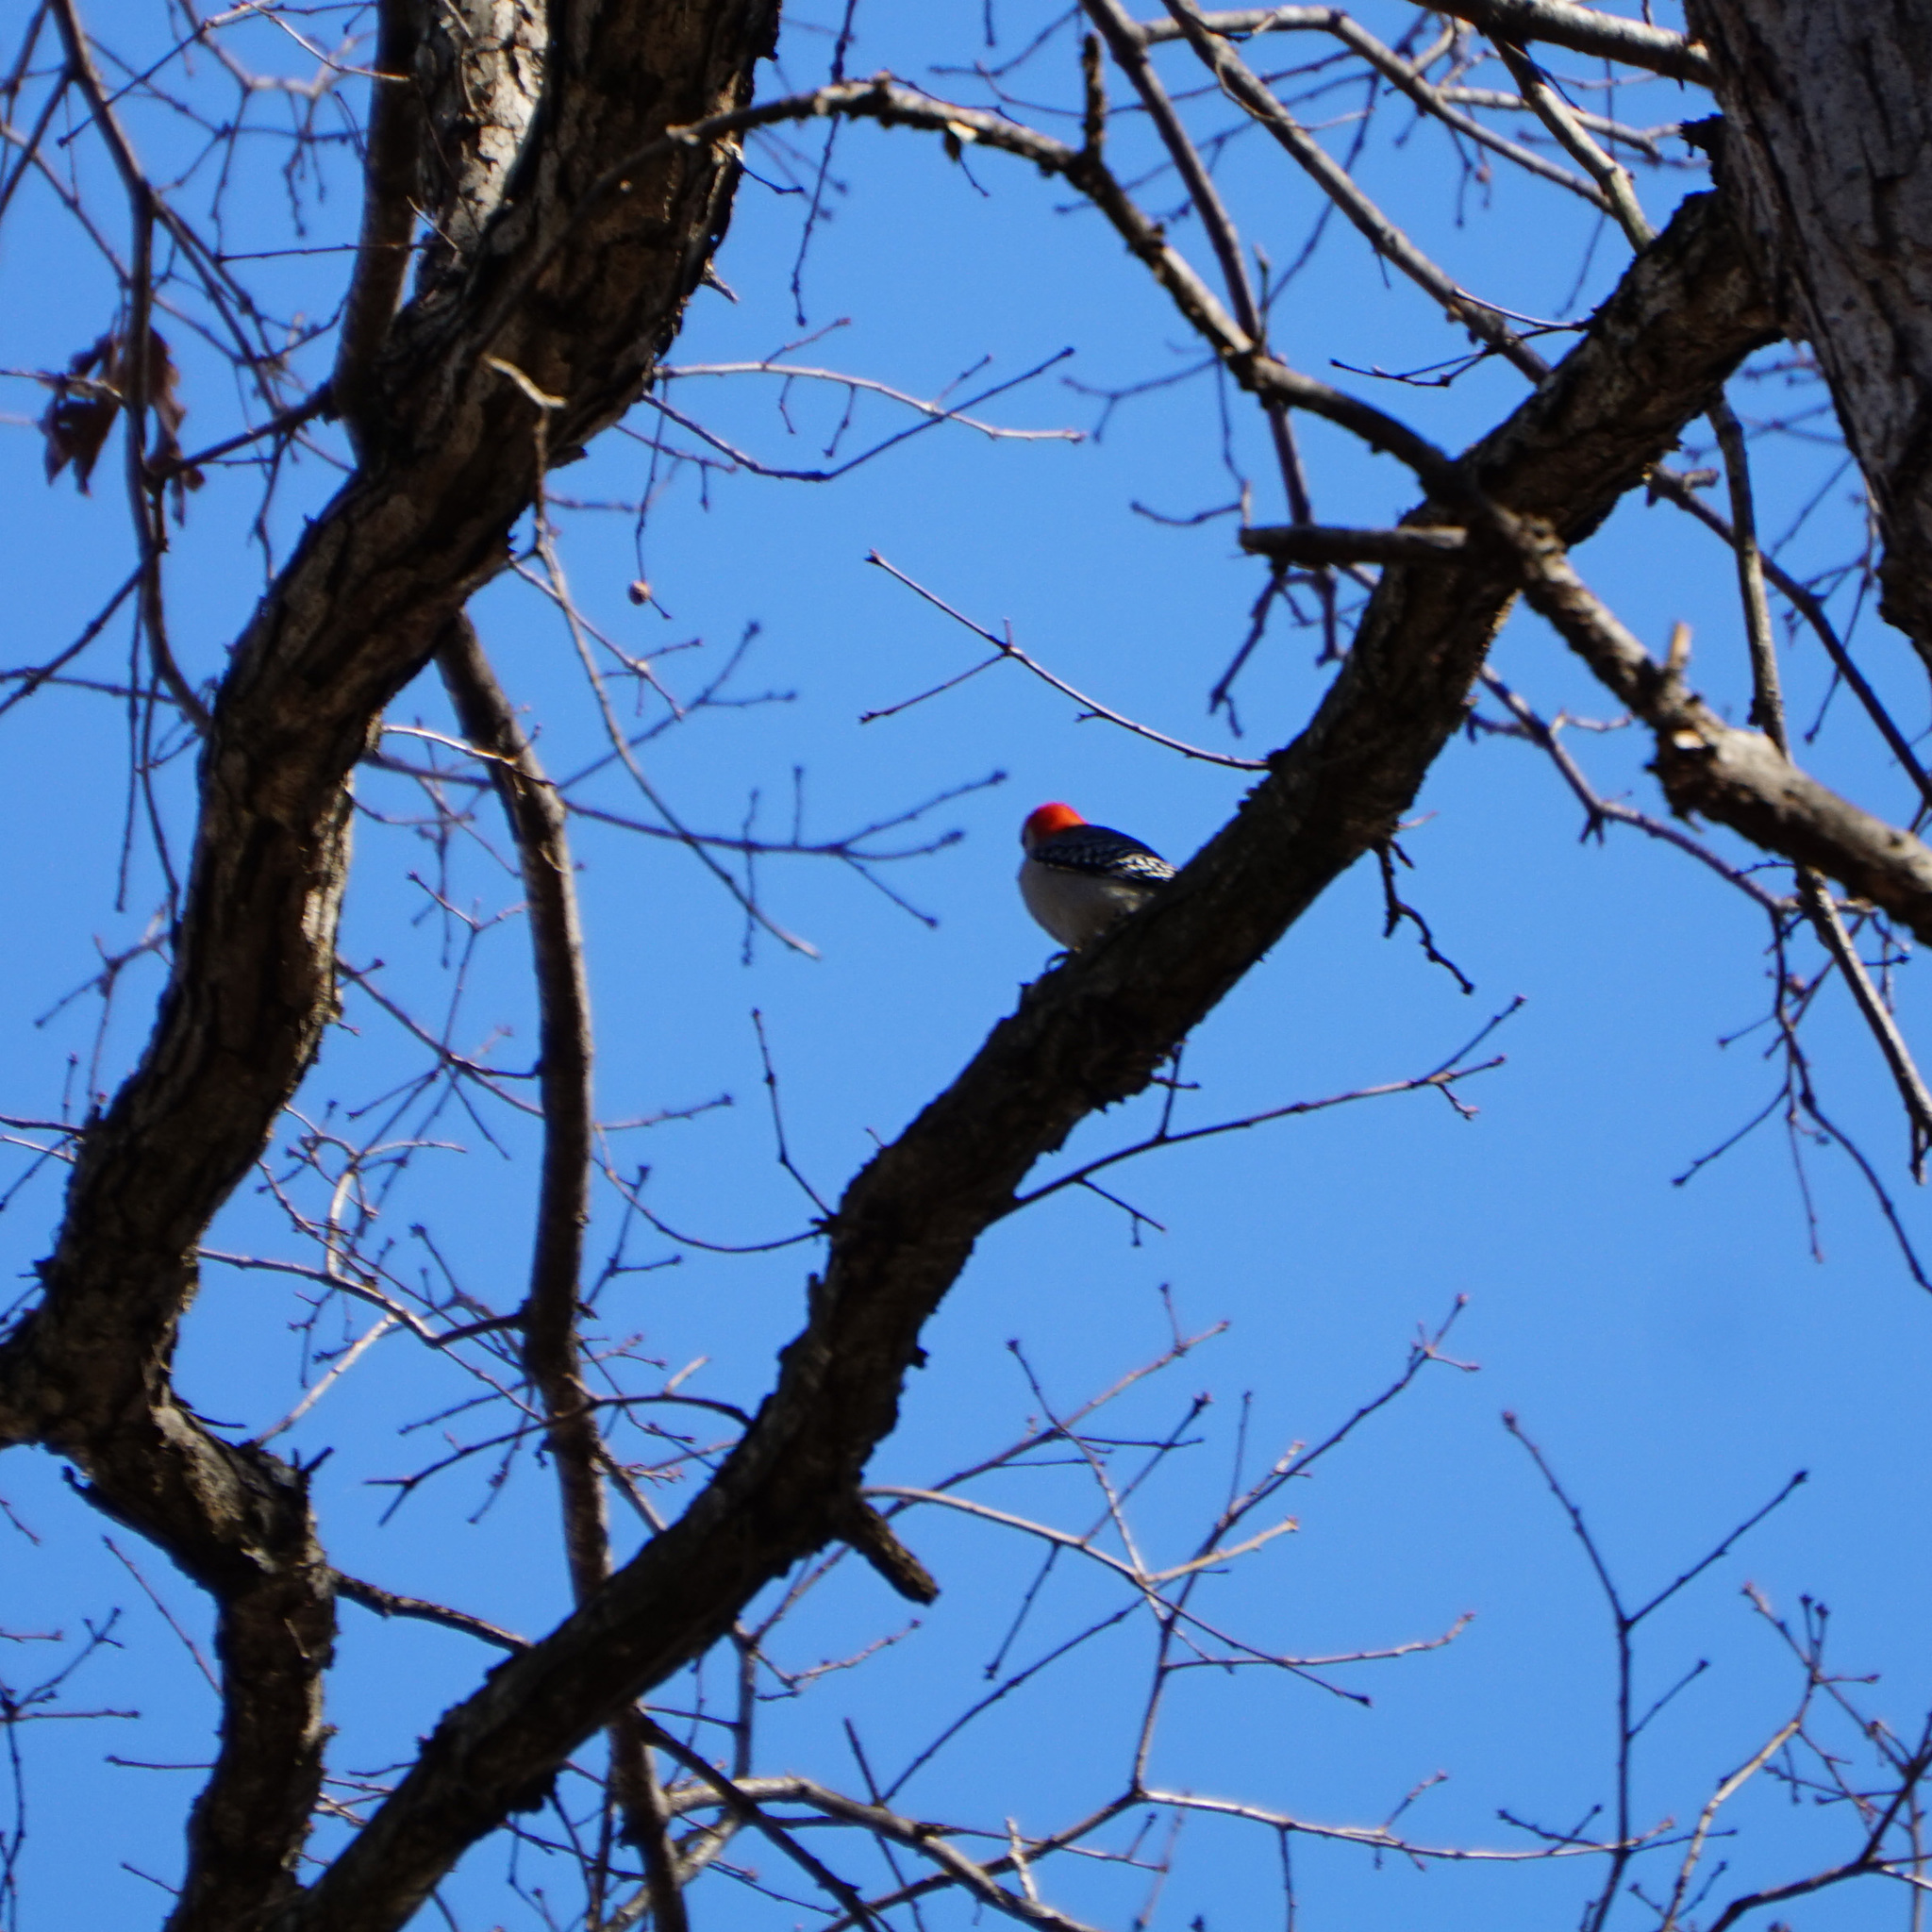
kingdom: Animalia
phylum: Chordata
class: Aves
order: Piciformes
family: Picidae
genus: Melanerpes
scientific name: Melanerpes carolinus
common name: Red-bellied woodpecker
